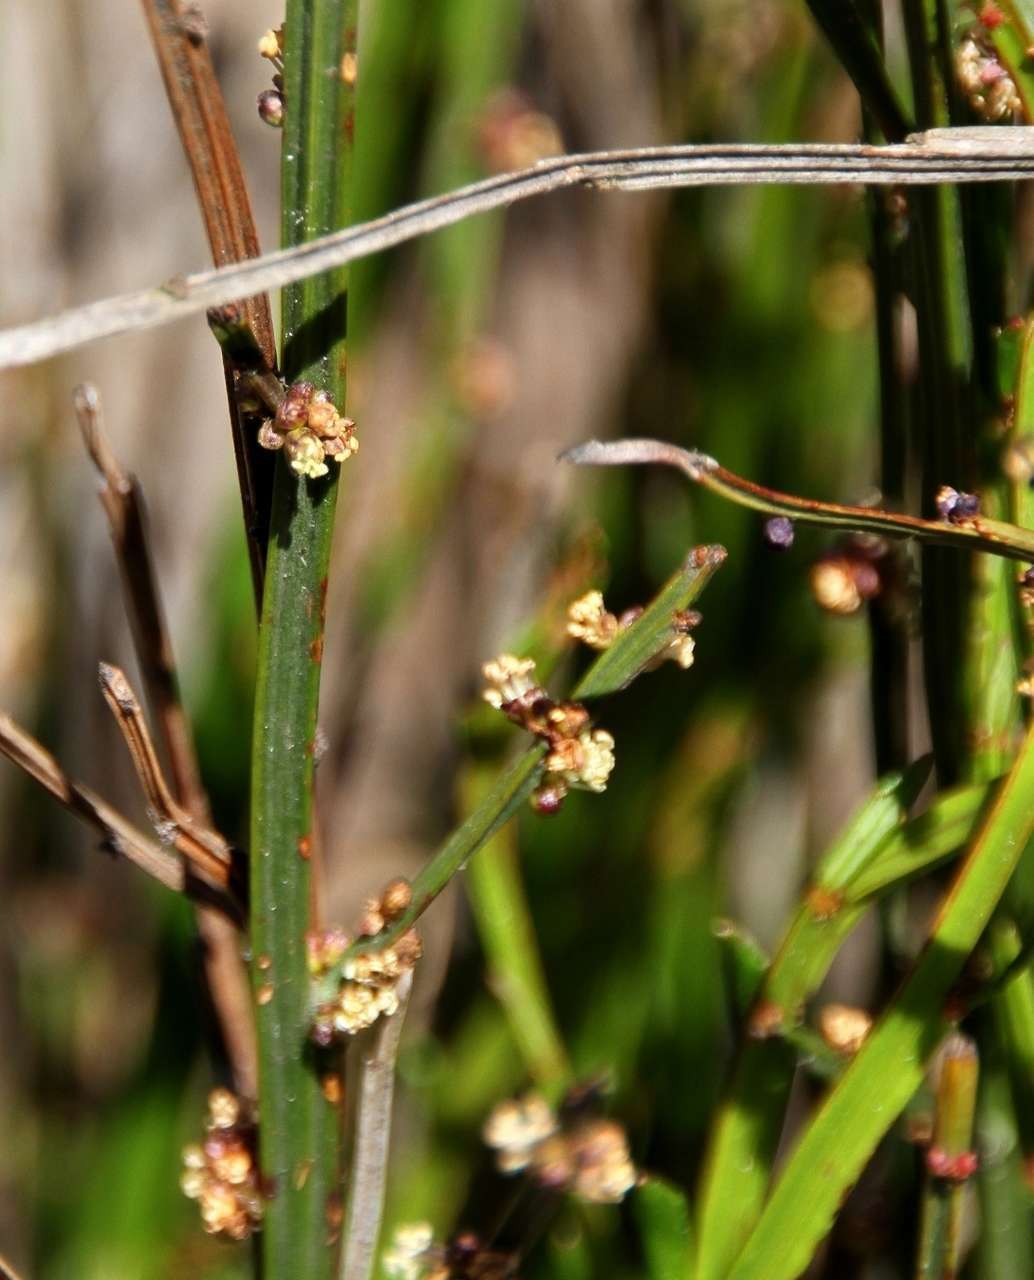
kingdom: Plantae
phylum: Tracheophyta
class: Magnoliopsida
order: Malpighiales
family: Euphorbiaceae
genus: Amperea
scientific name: Amperea xiphoclada
